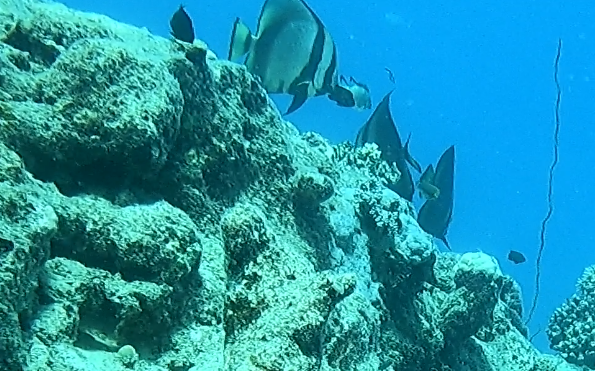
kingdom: Animalia
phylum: Chordata
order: Perciformes
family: Ephippidae
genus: Platax
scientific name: Platax pinnatus
